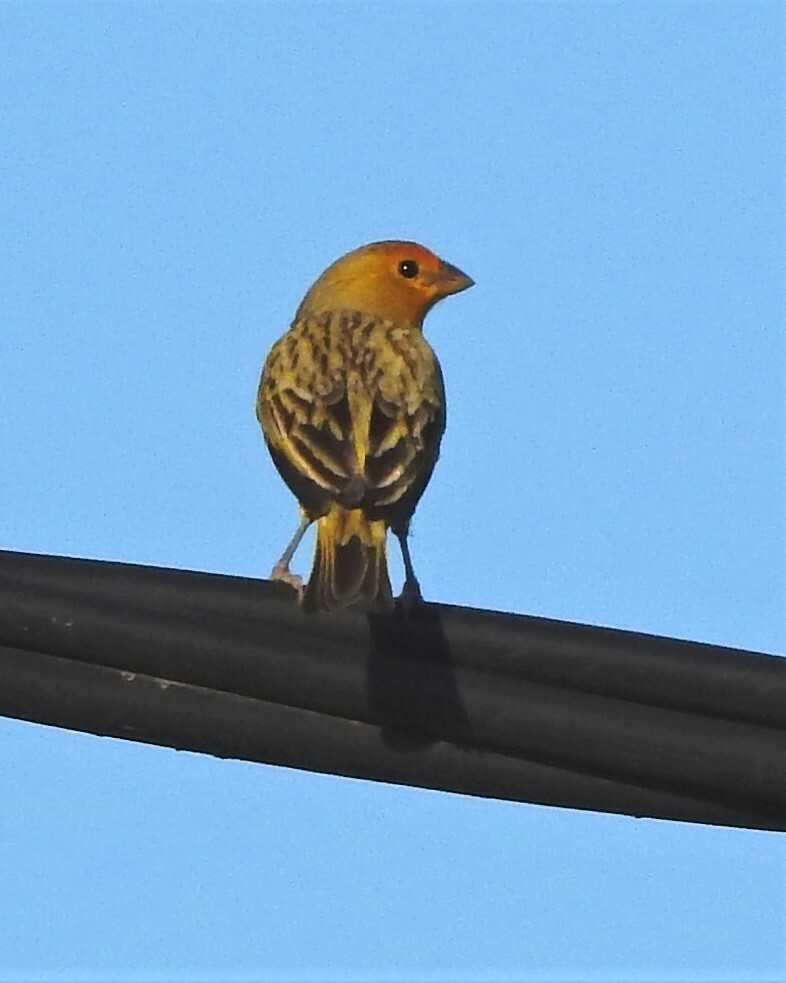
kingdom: Animalia
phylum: Chordata
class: Aves
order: Passeriformes
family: Thraupidae
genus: Sicalis
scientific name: Sicalis flaveola
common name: Saffron finch
